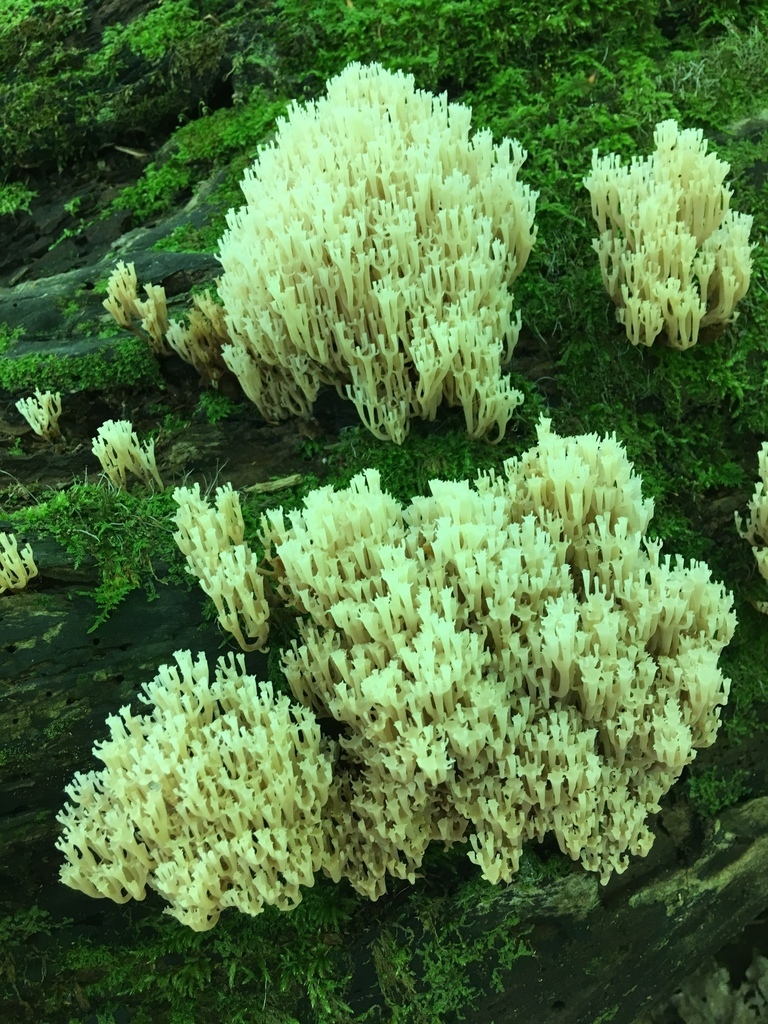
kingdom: Fungi
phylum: Basidiomycota
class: Agaricomycetes
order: Russulales
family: Auriscalpiaceae
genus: Artomyces
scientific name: Artomyces pyxidatus
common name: Crown-tipped coral fungus
